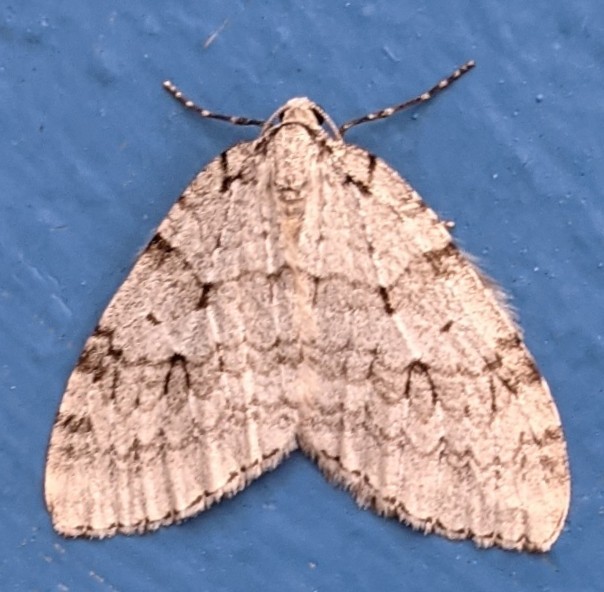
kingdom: Animalia
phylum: Arthropoda
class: Insecta
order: Lepidoptera
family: Geometridae
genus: Epirrita
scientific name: Epirrita autumnata
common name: Autumnal moth
